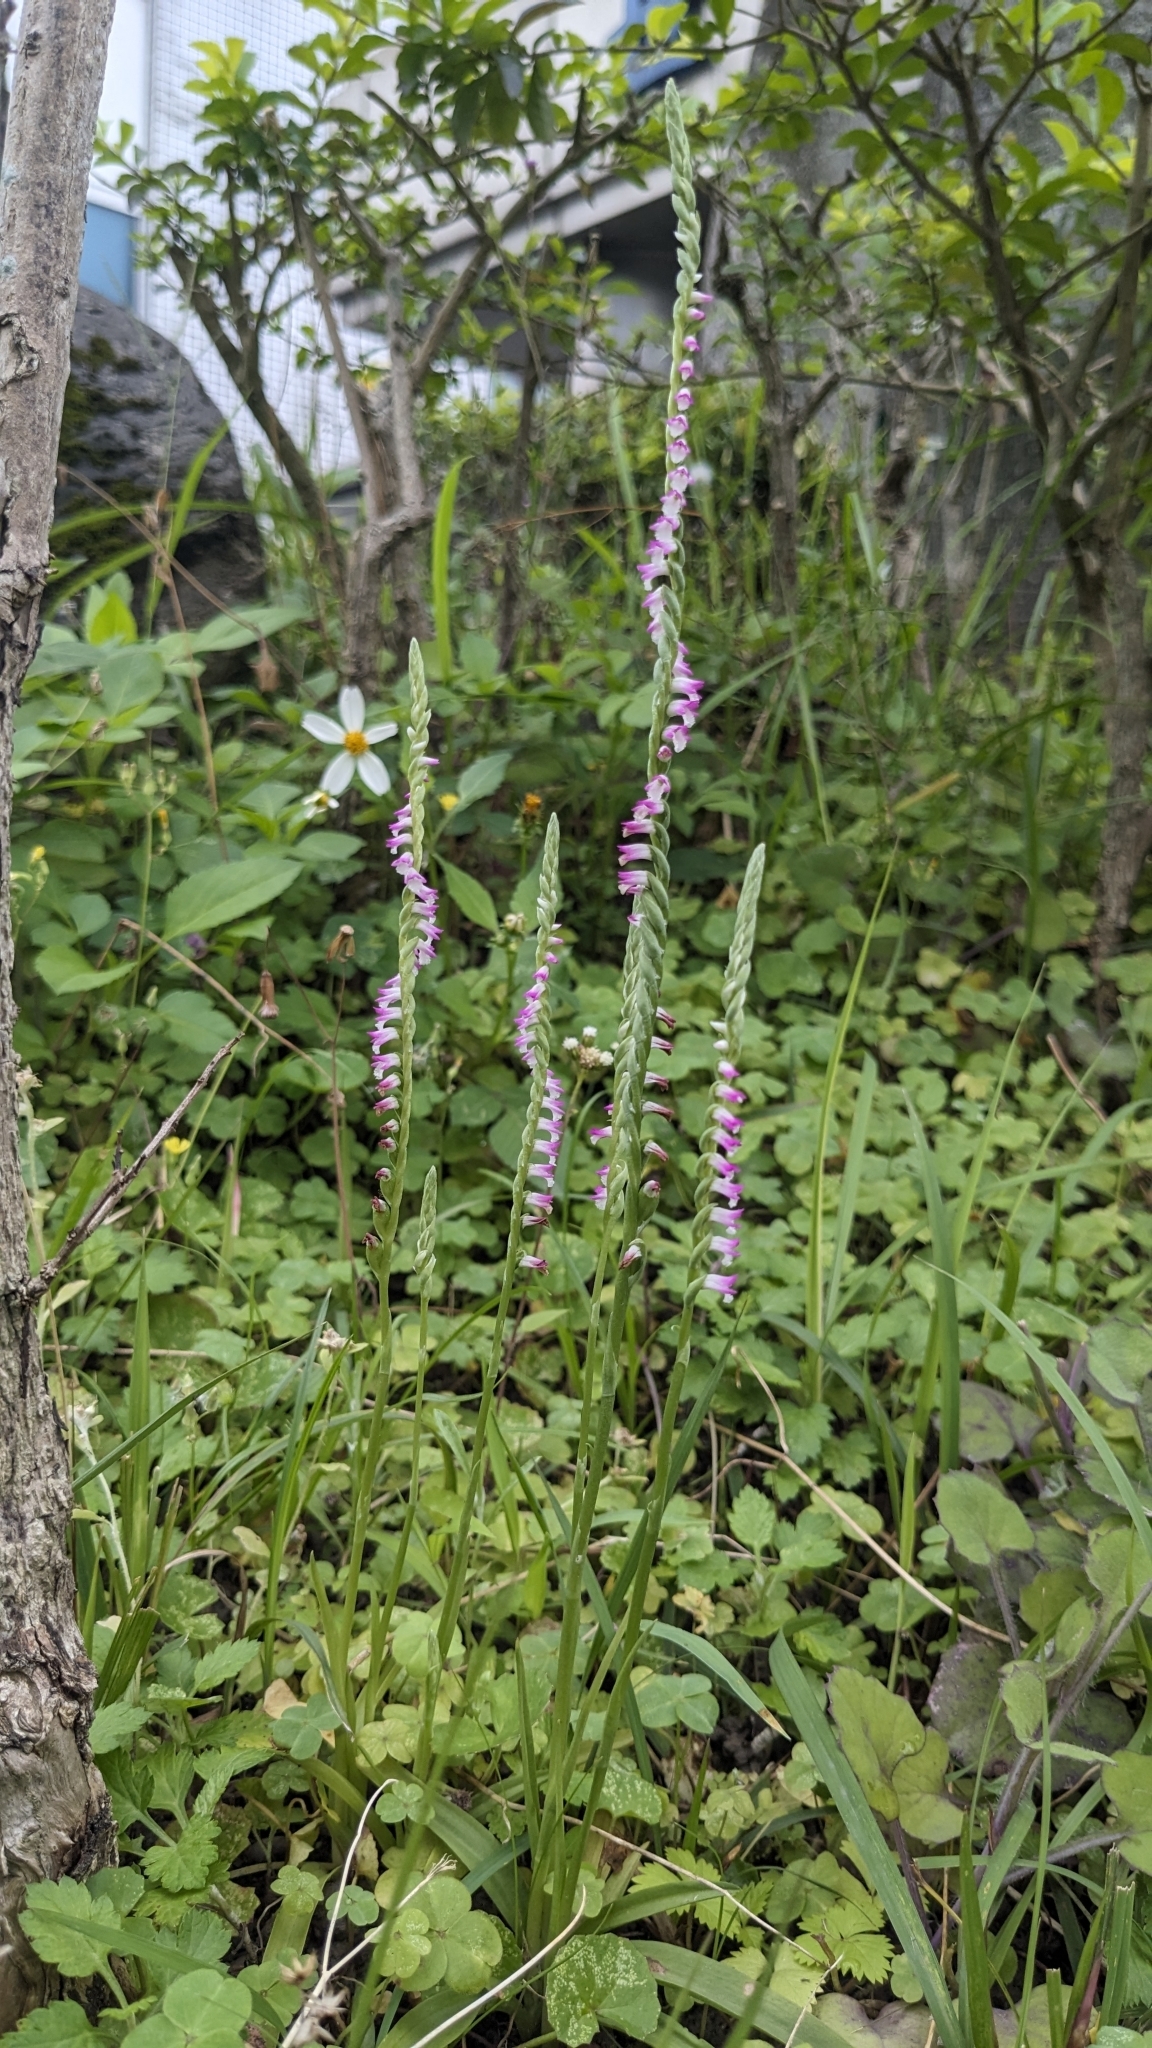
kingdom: Plantae
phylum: Tracheophyta
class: Liliopsida
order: Asparagales
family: Orchidaceae
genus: Spiranthes
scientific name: Spiranthes sinensis
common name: Chinese spiranthes
